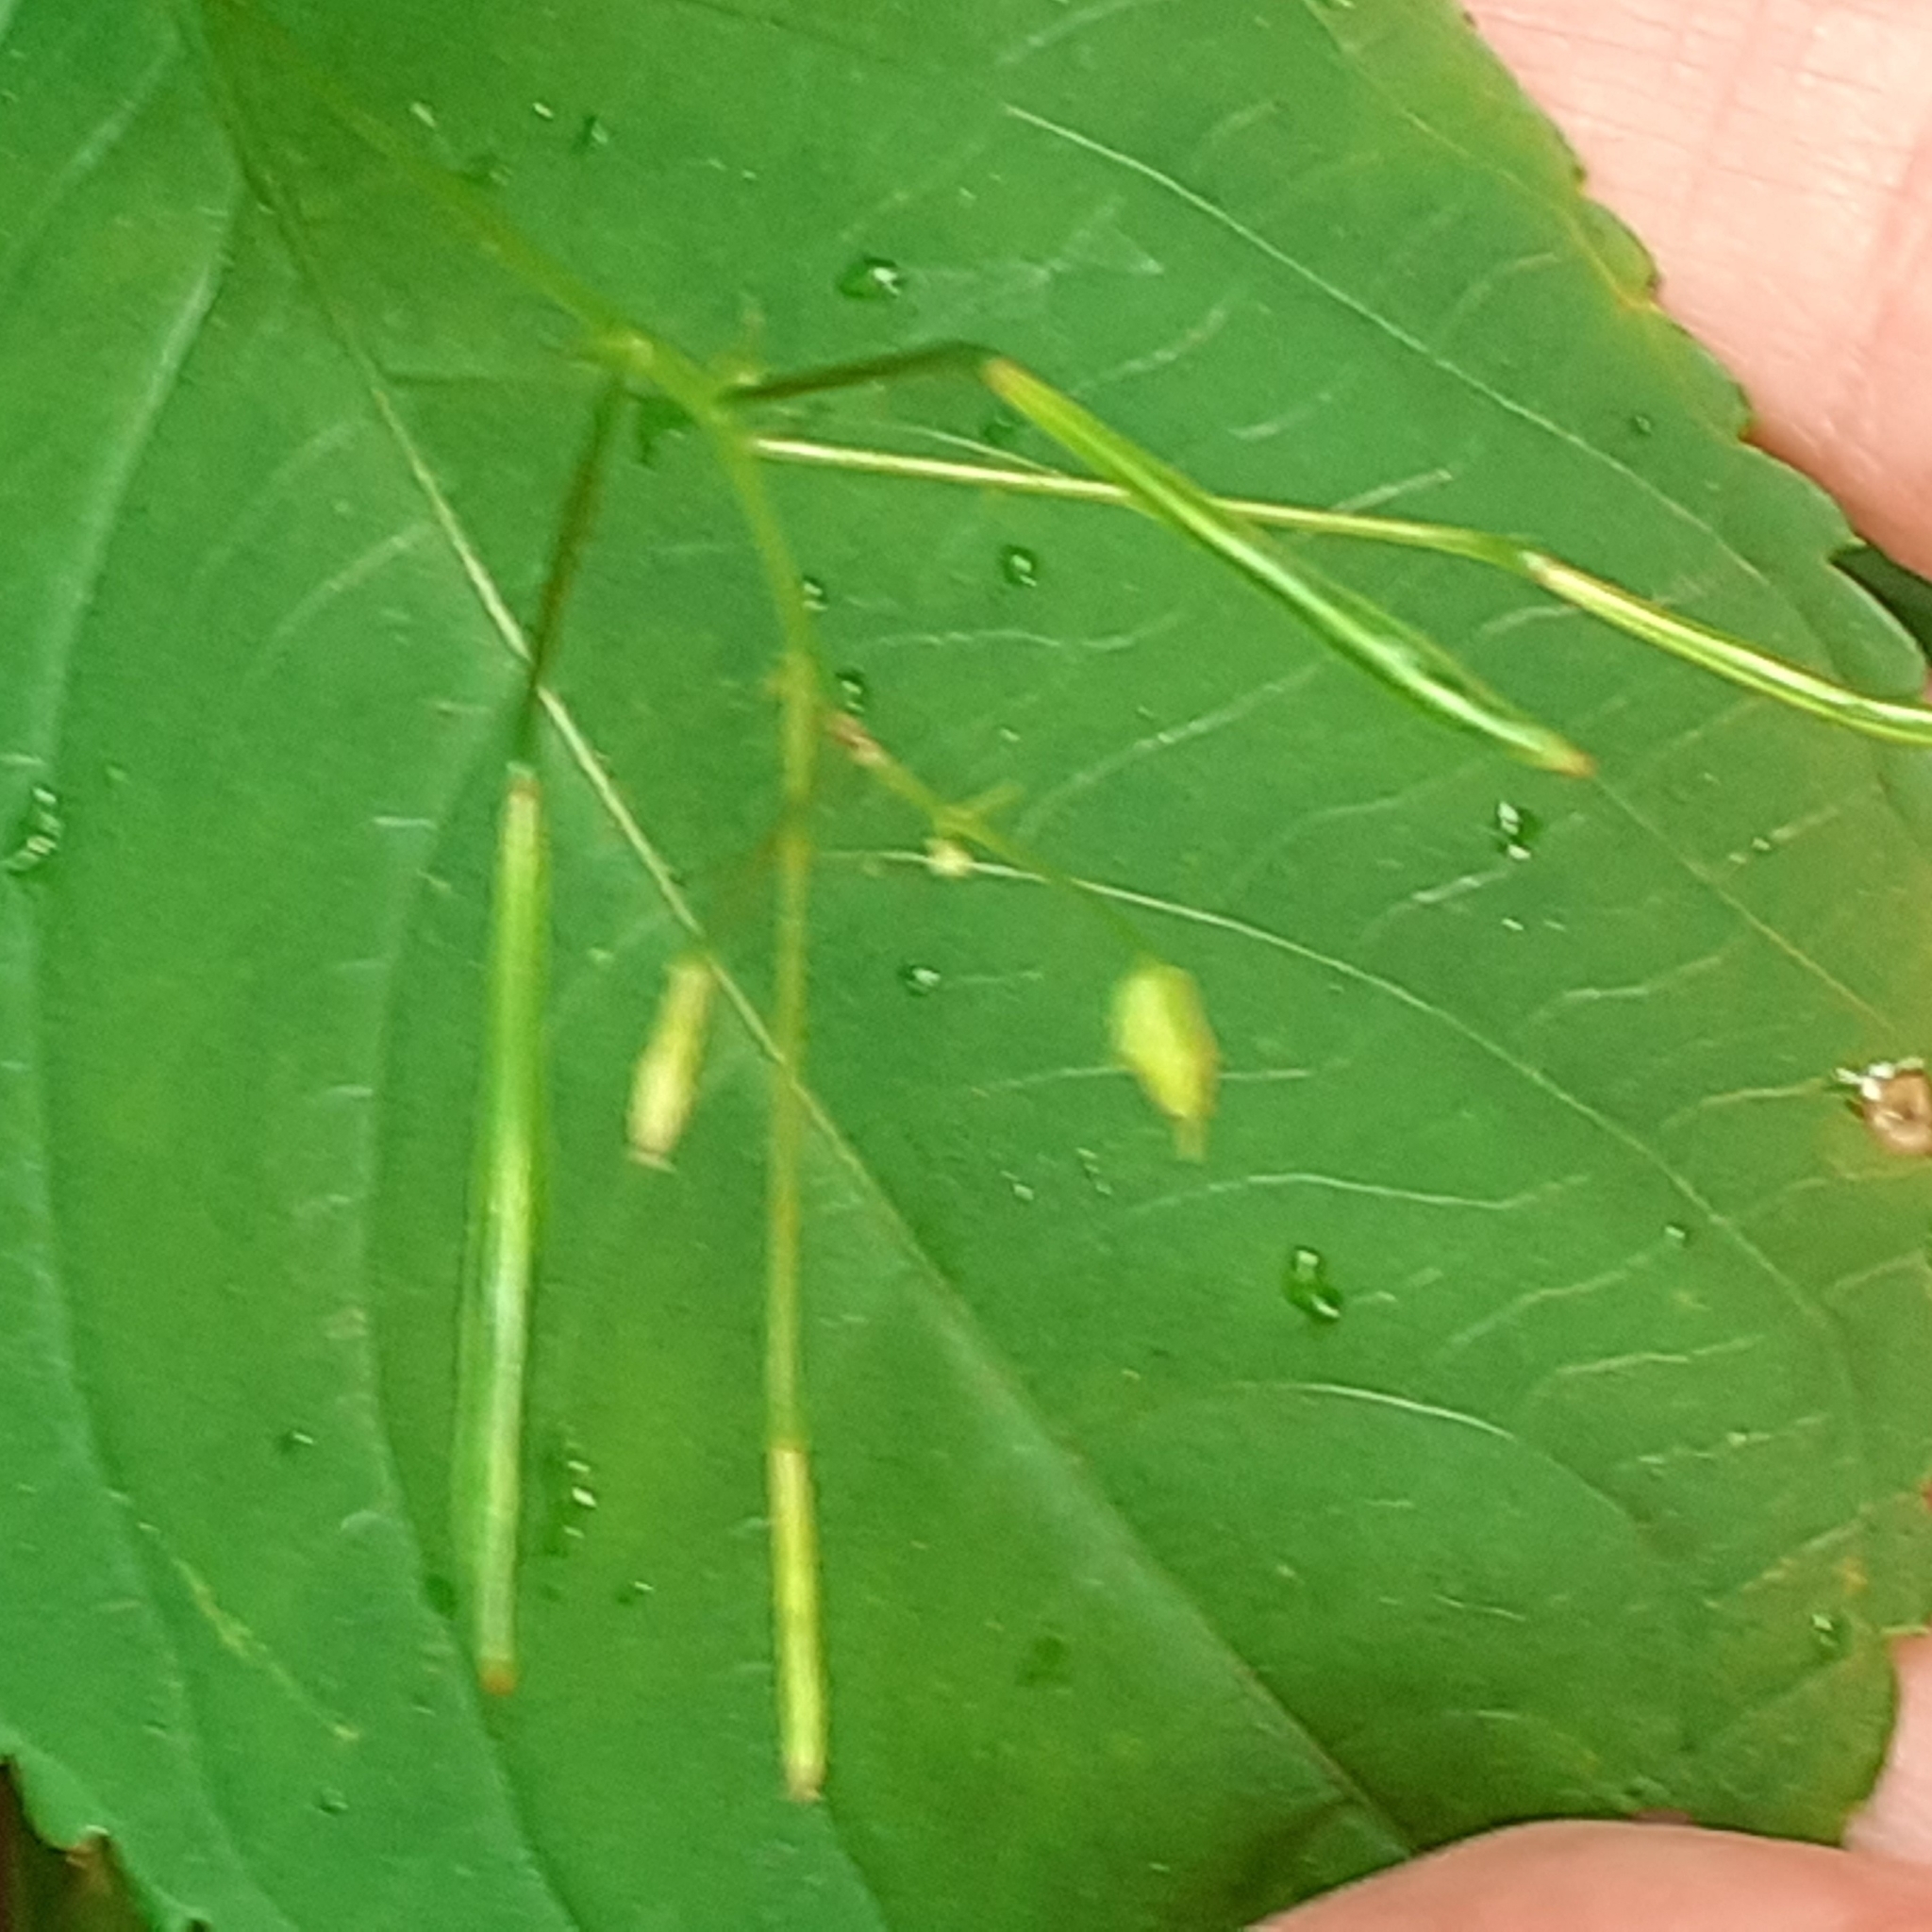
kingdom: Plantae
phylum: Tracheophyta
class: Magnoliopsida
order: Ericales
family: Balsaminaceae
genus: Impatiens
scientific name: Impatiens parviflora
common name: Small balsam
